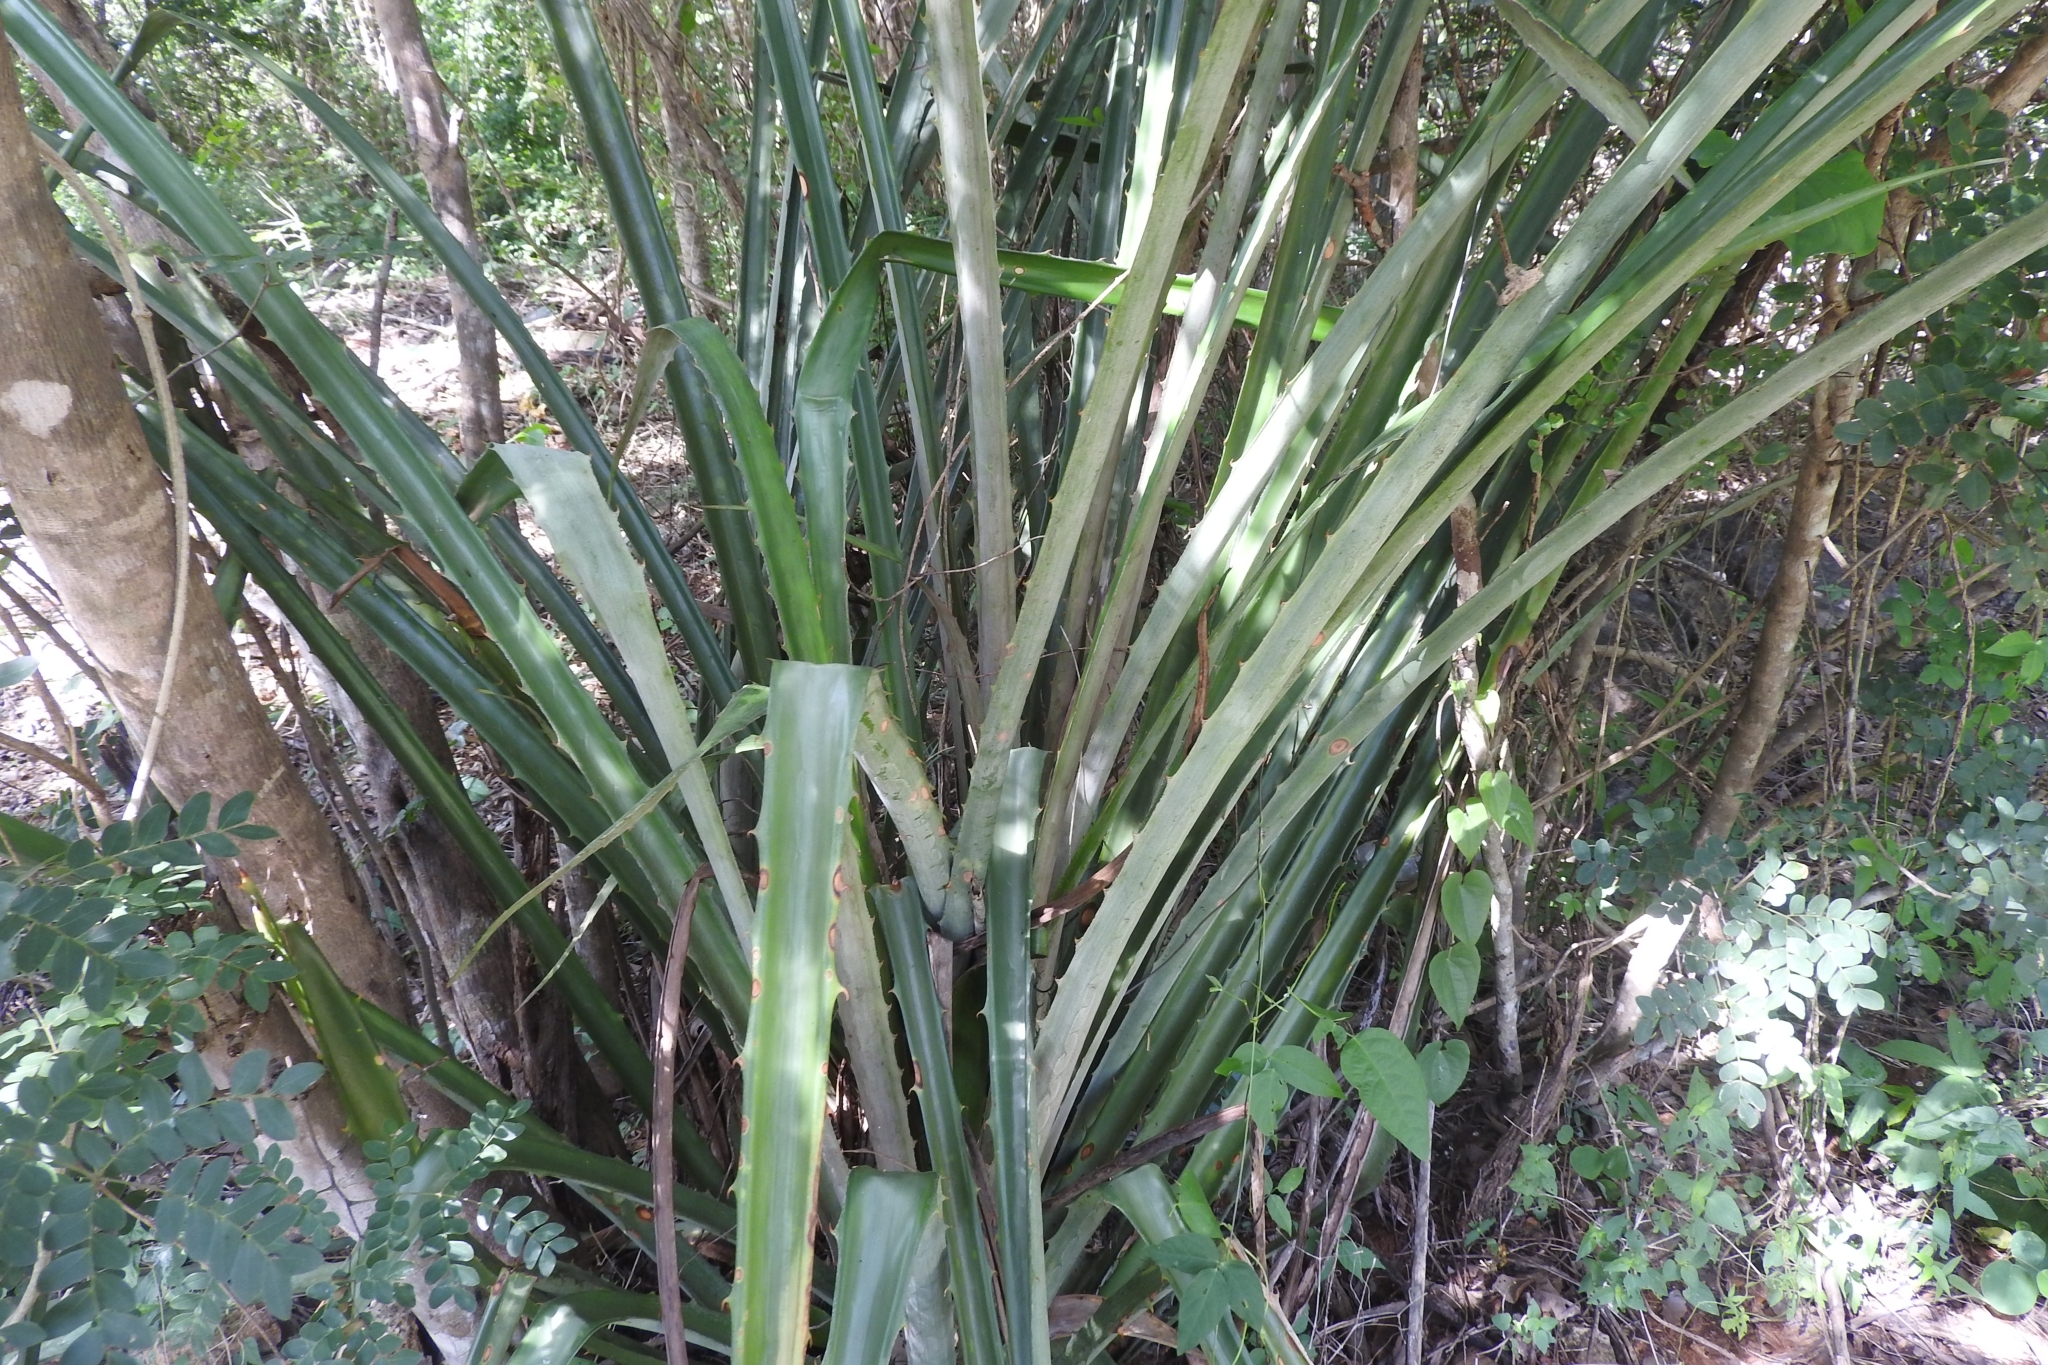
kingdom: Plantae
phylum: Tracheophyta
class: Liliopsida
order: Poales
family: Bromeliaceae
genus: Bromelia
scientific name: Bromelia pinguin
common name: Pinguin
